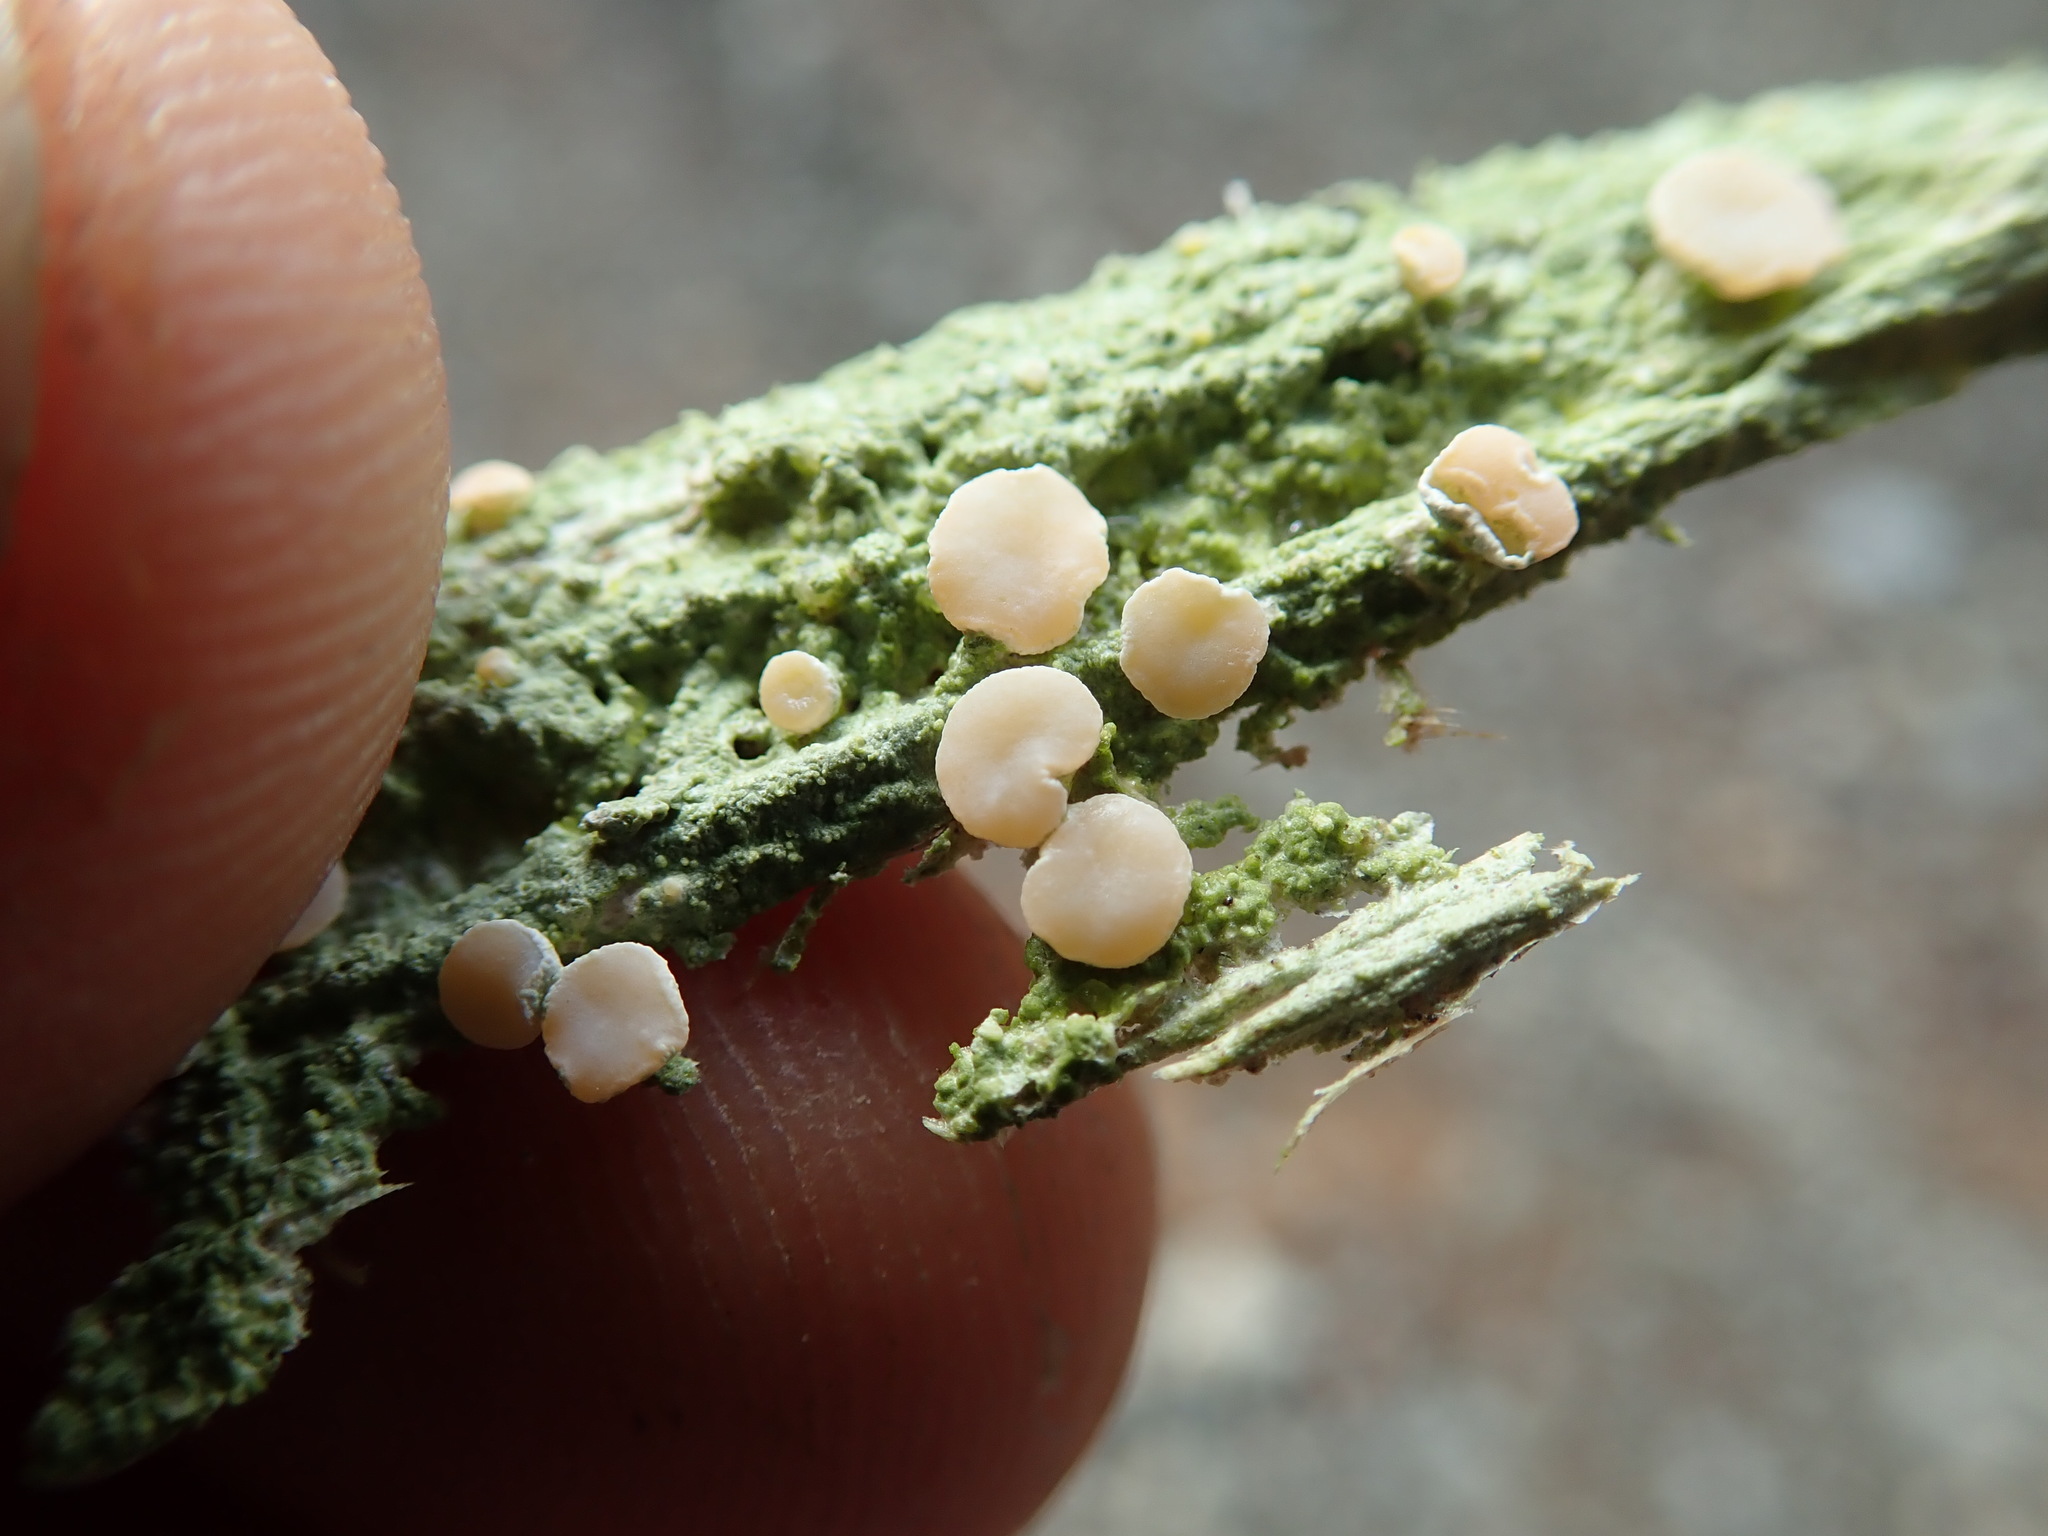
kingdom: Fungi
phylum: Ascomycota
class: Lecanoromycetes
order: Pertusariales
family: Icmadophilaceae
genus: Icmadophila
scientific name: Icmadophila ericetorum
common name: Candy lichen
